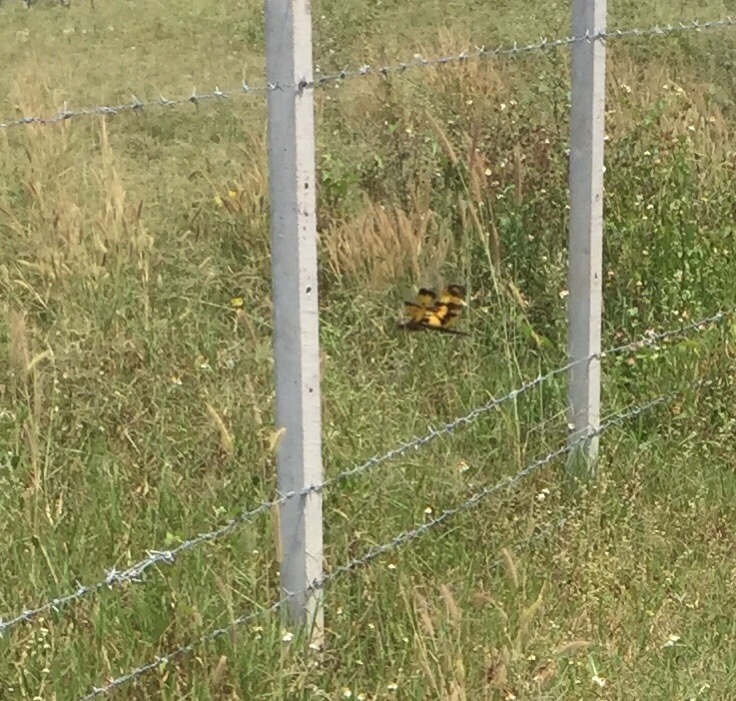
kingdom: Animalia
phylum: Arthropoda
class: Insecta
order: Odonata
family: Libellulidae
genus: Rhyothemis
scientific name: Rhyothemis variegata
